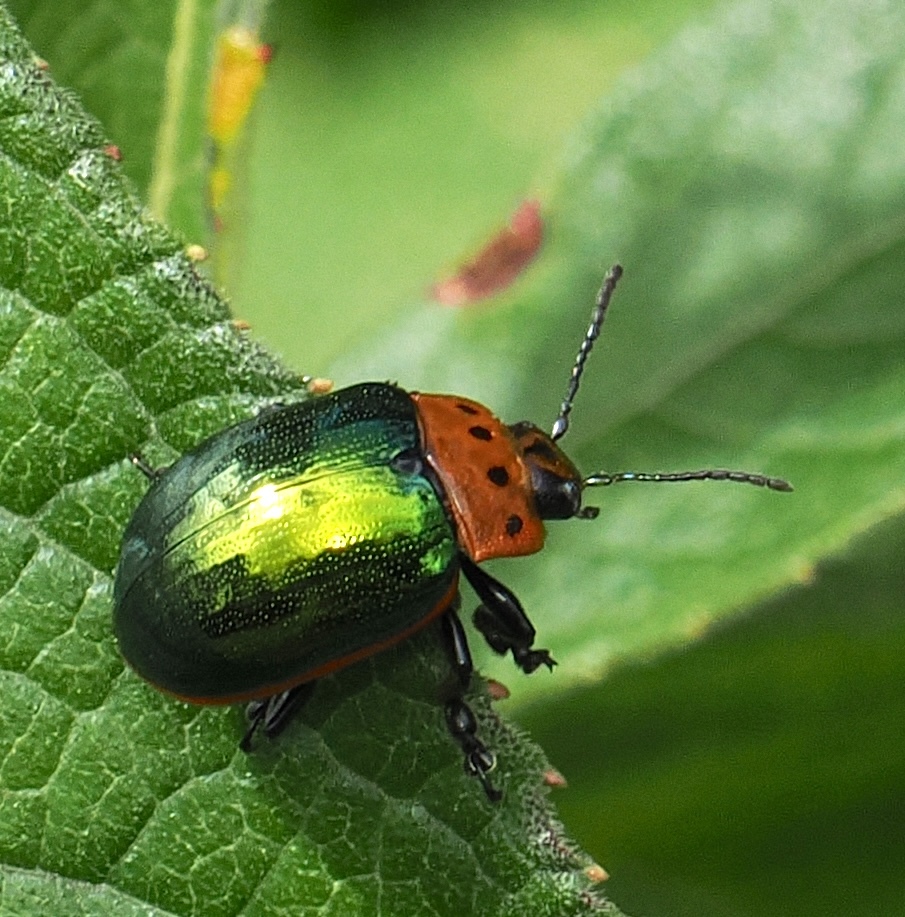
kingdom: Animalia
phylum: Arthropoda
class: Insecta
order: Coleoptera
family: Chrysomelidae
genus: Platyphora
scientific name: Platyphora
